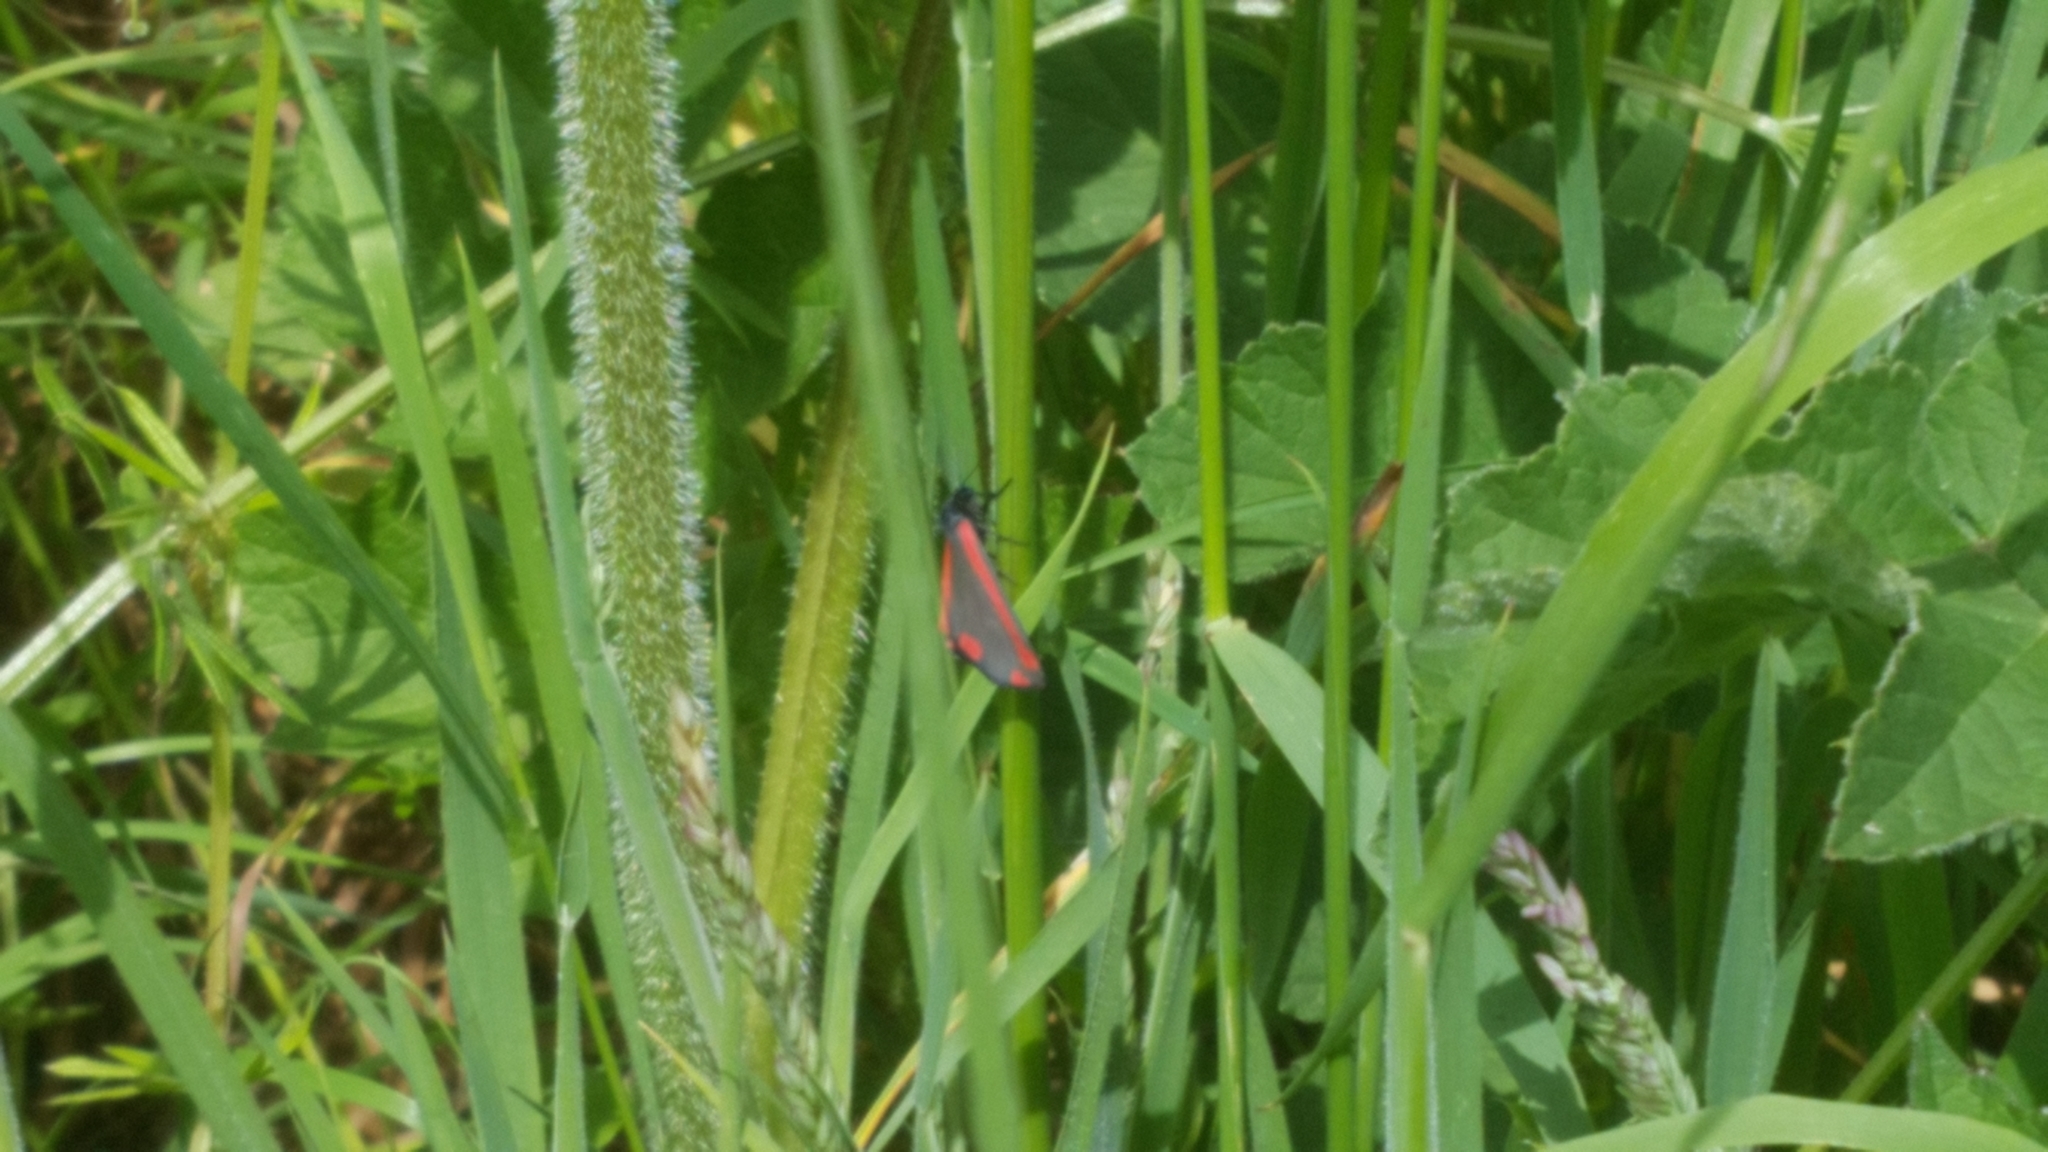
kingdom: Animalia
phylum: Arthropoda
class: Insecta
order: Lepidoptera
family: Erebidae
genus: Tyria
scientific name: Tyria jacobaeae
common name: Cinnabar
